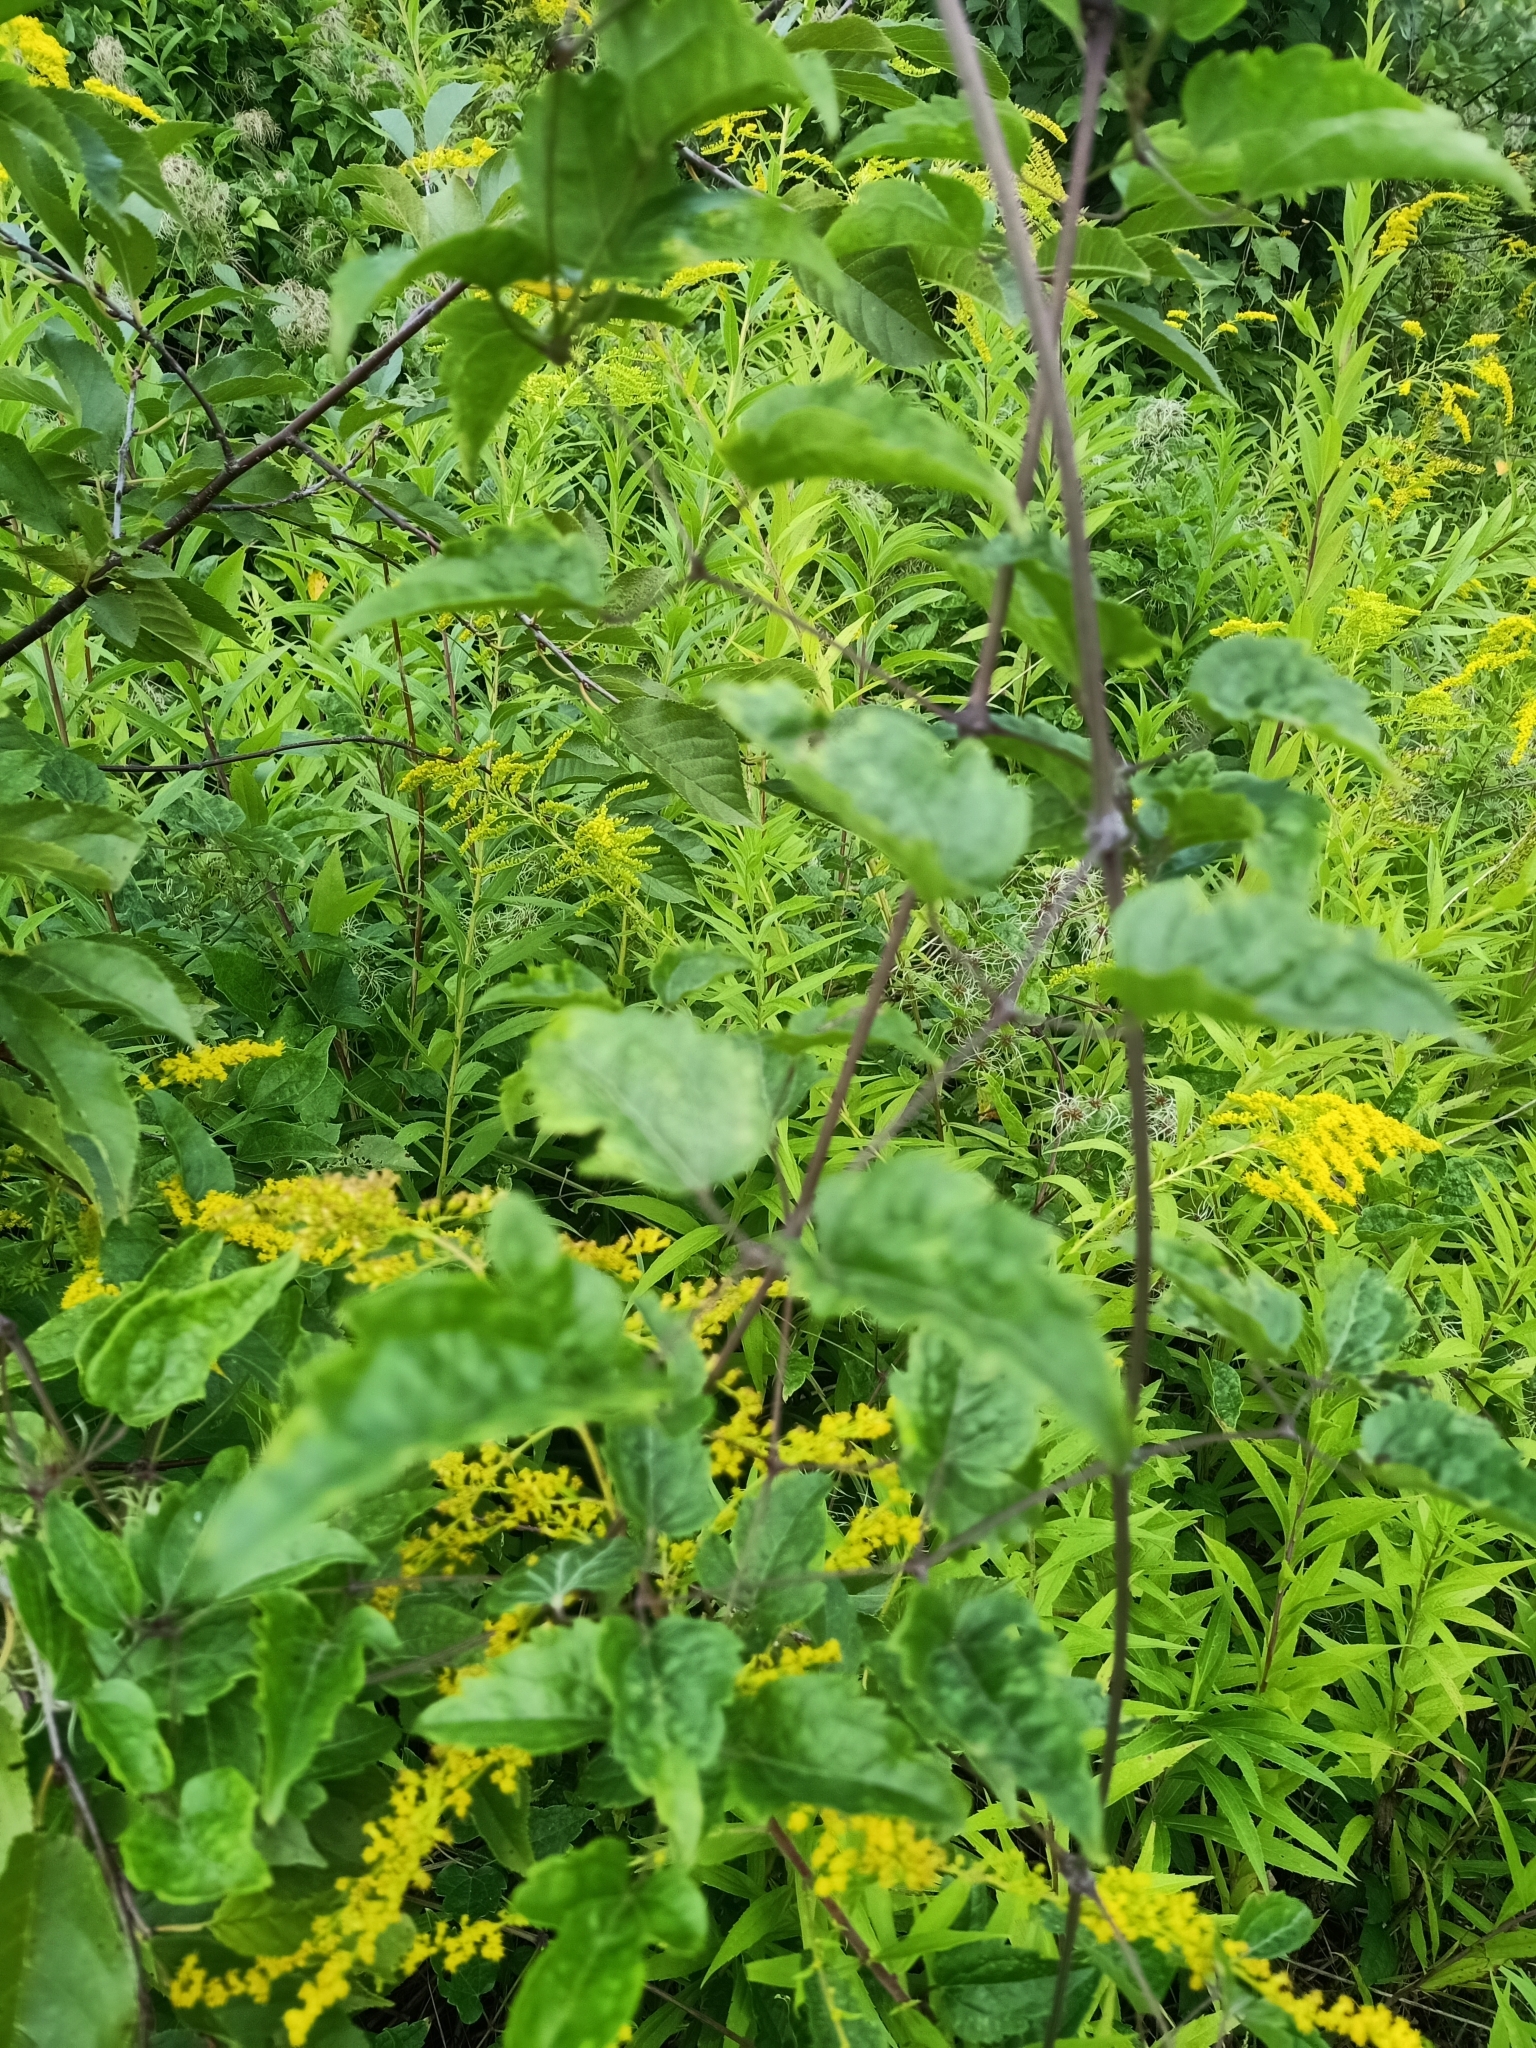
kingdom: Plantae
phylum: Tracheophyta
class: Magnoliopsida
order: Ranunculales
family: Ranunculaceae
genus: Clematis
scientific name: Clematis vitalba
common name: Evergreen clematis
